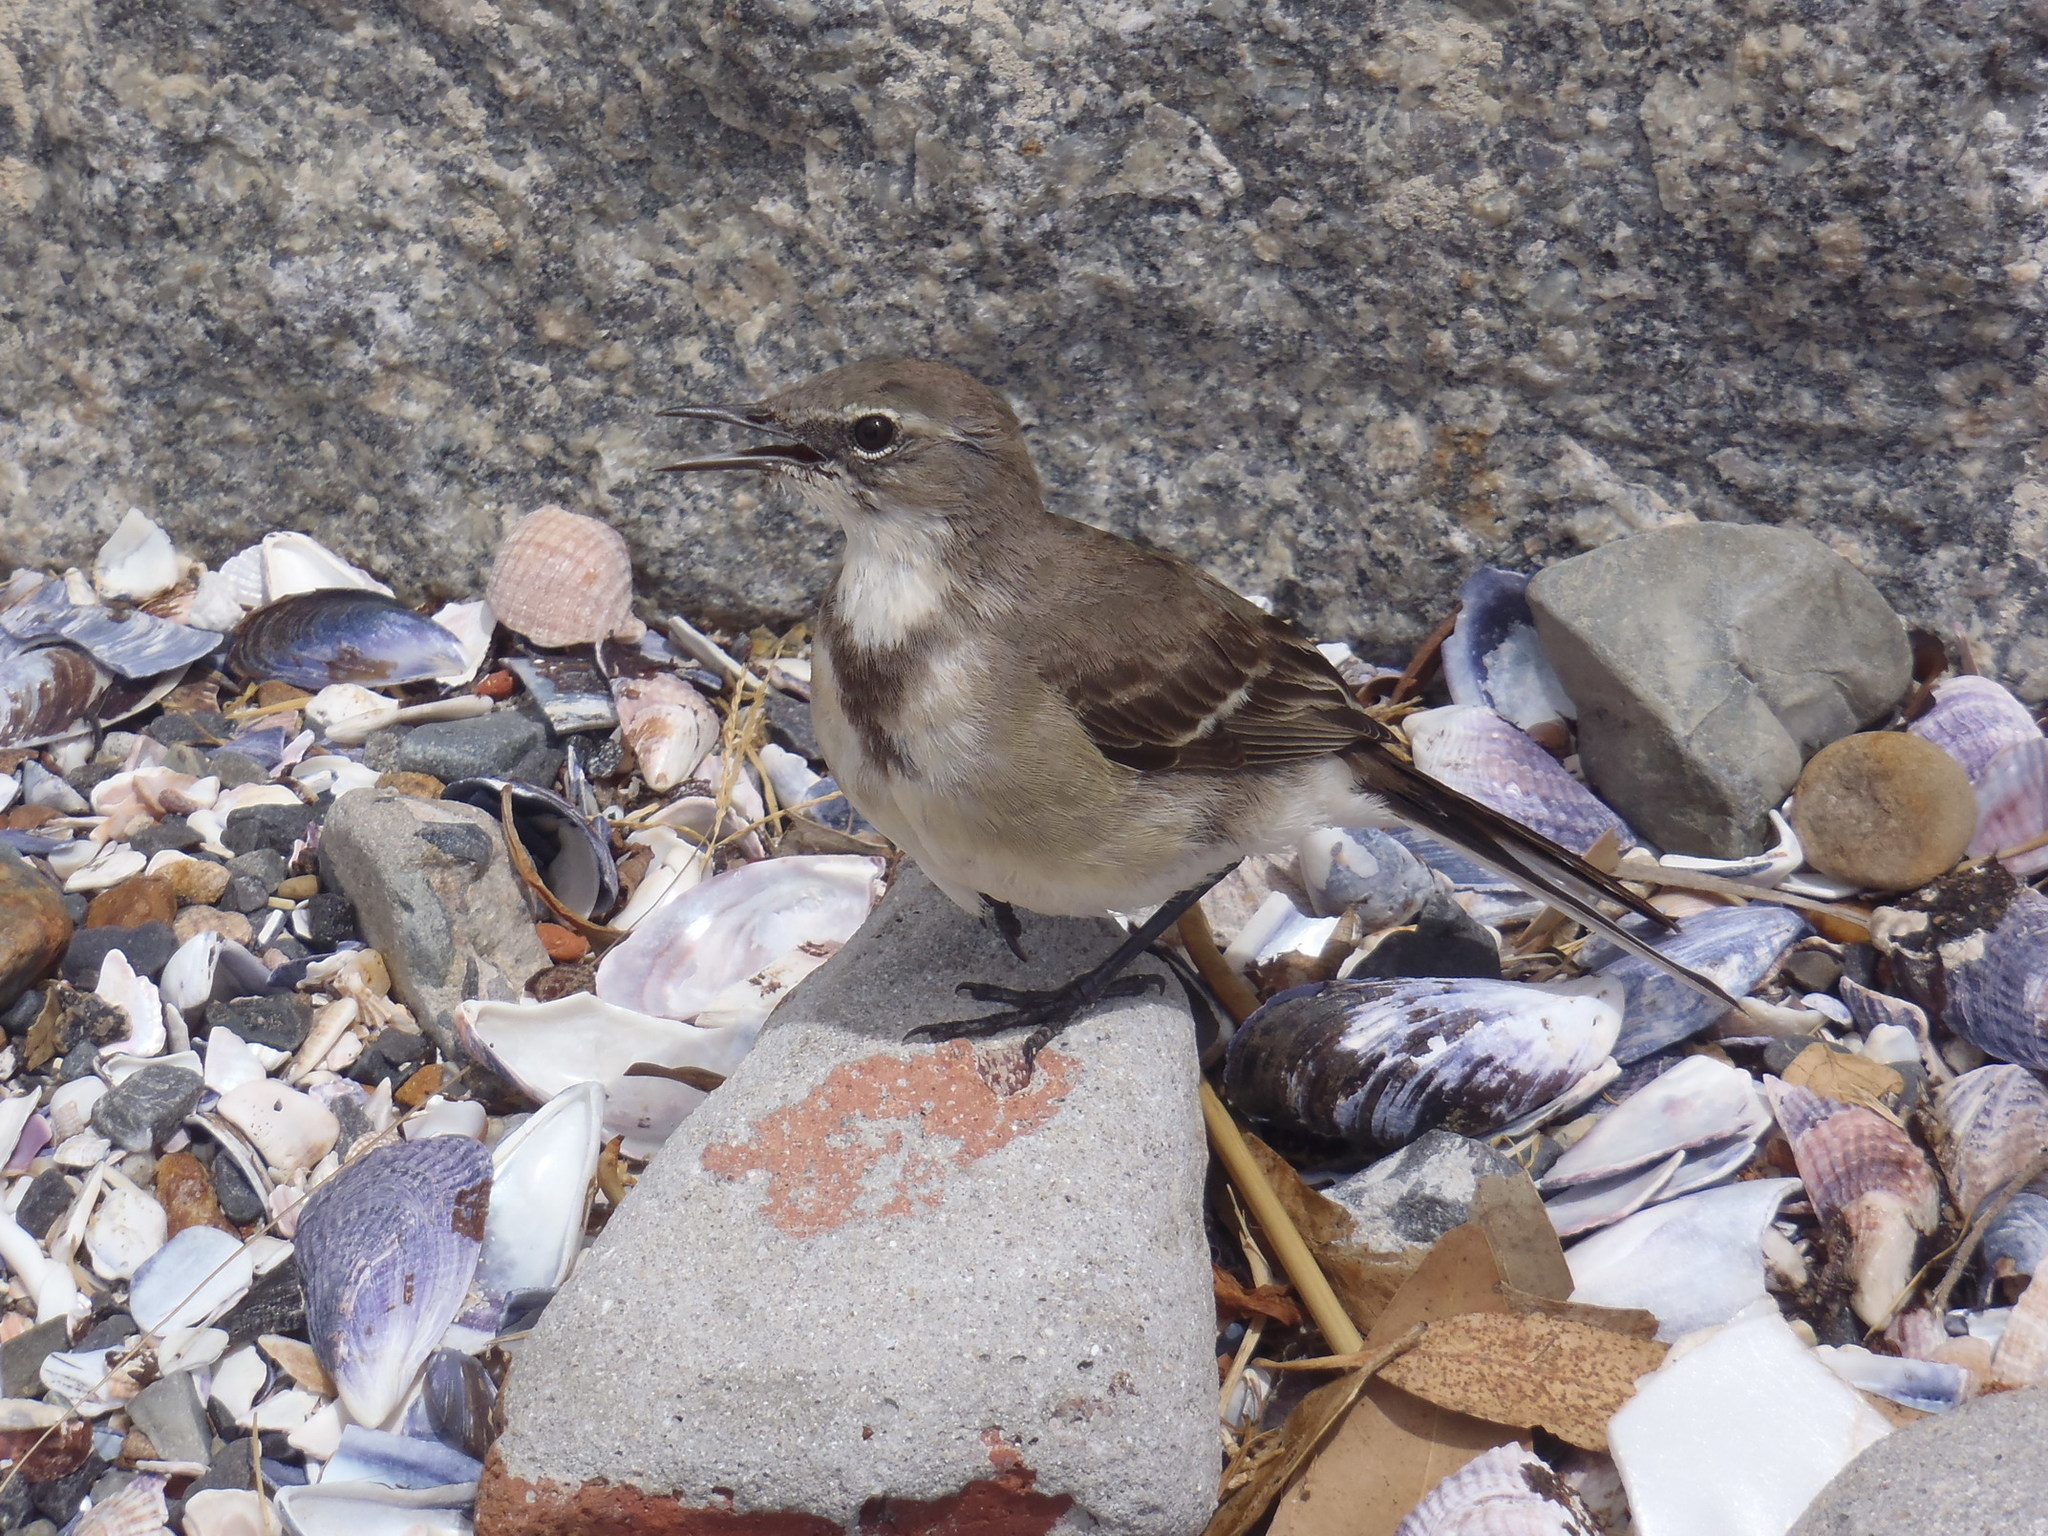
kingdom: Animalia
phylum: Chordata
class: Aves
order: Passeriformes
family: Motacillidae
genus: Motacilla
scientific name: Motacilla capensis
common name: Cape wagtail
